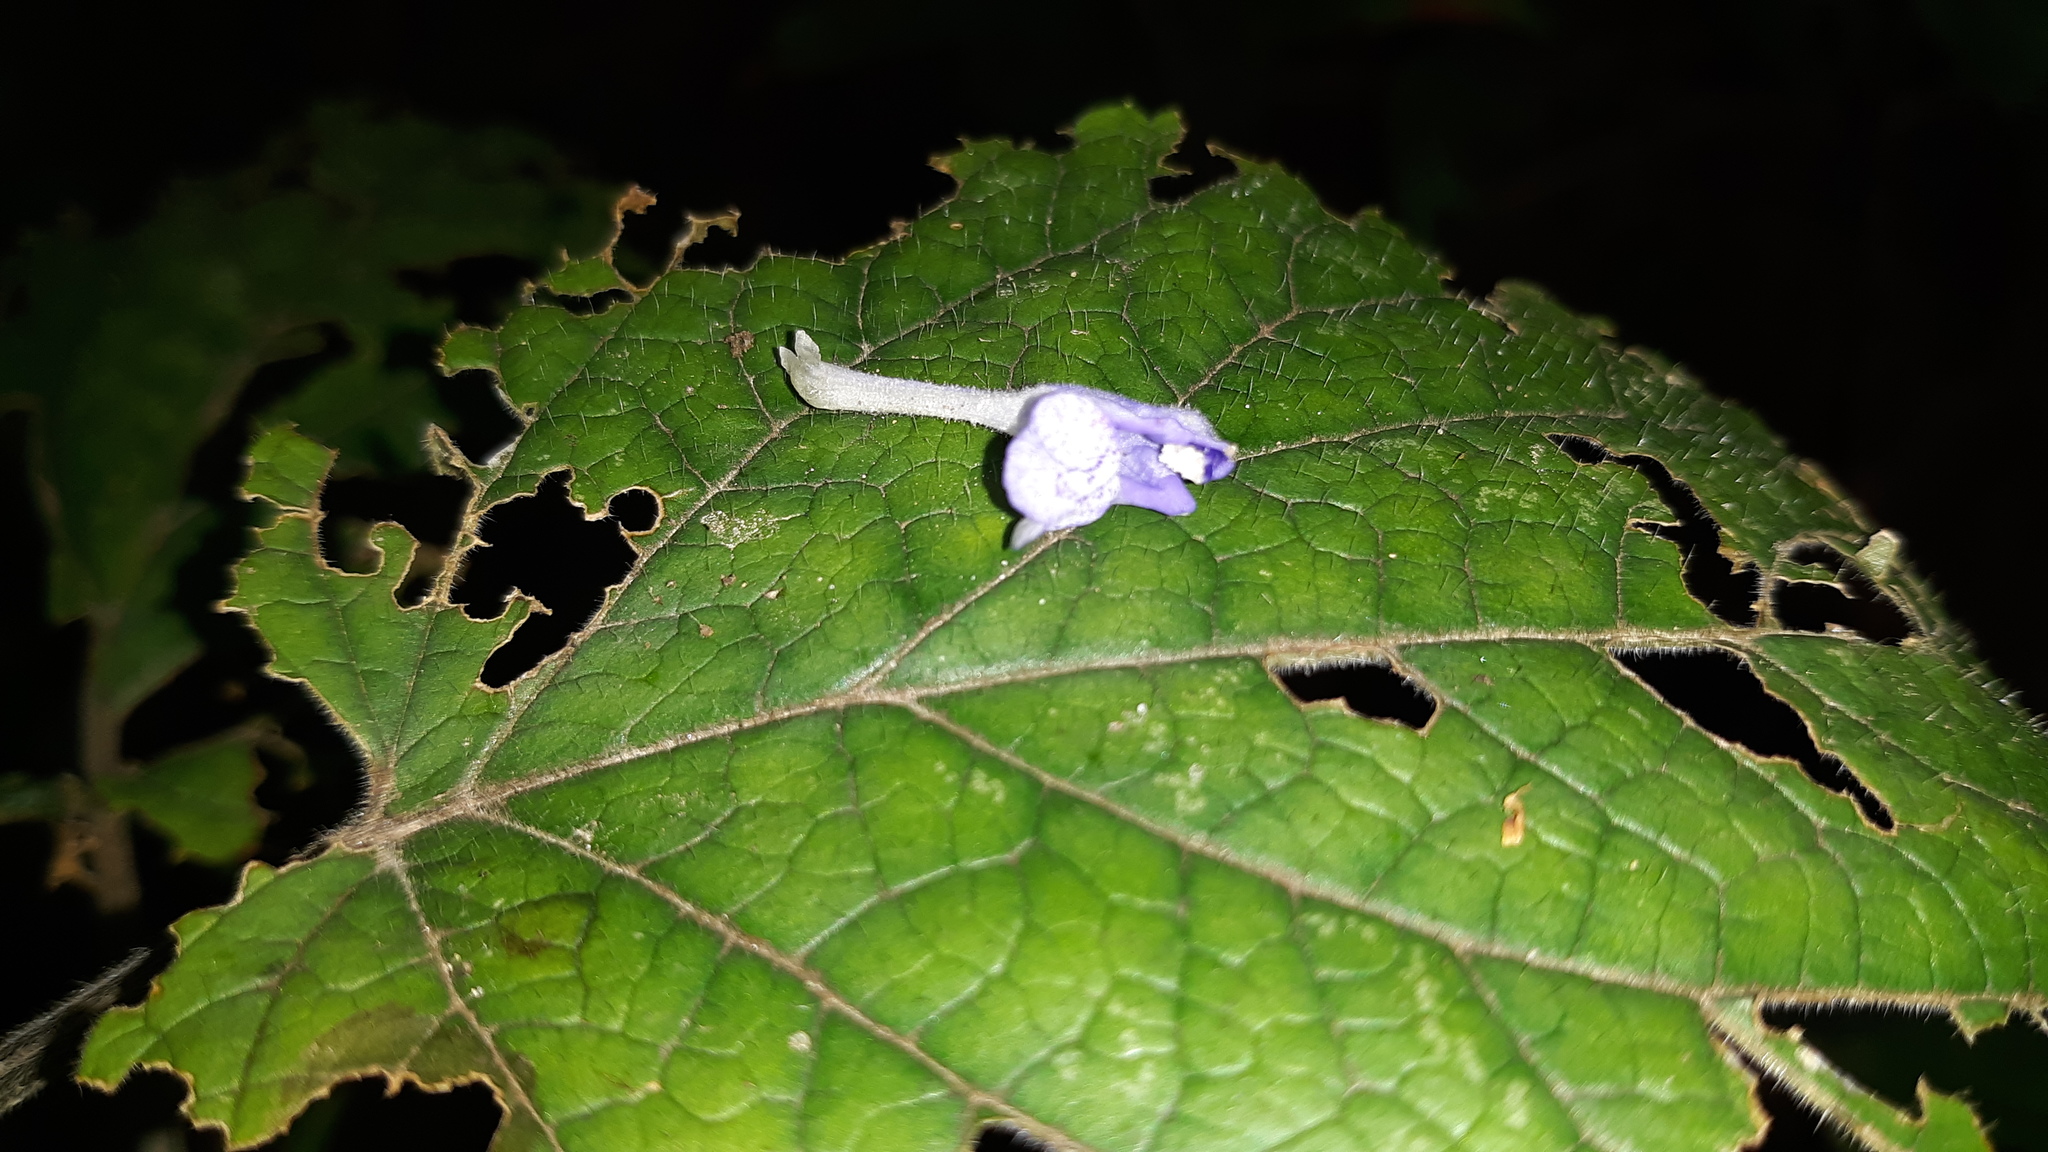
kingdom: Plantae
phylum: Tracheophyta
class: Magnoliopsida
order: Lamiales
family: Lamiaceae
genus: Scutellaria
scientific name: Scutellaria ovata
